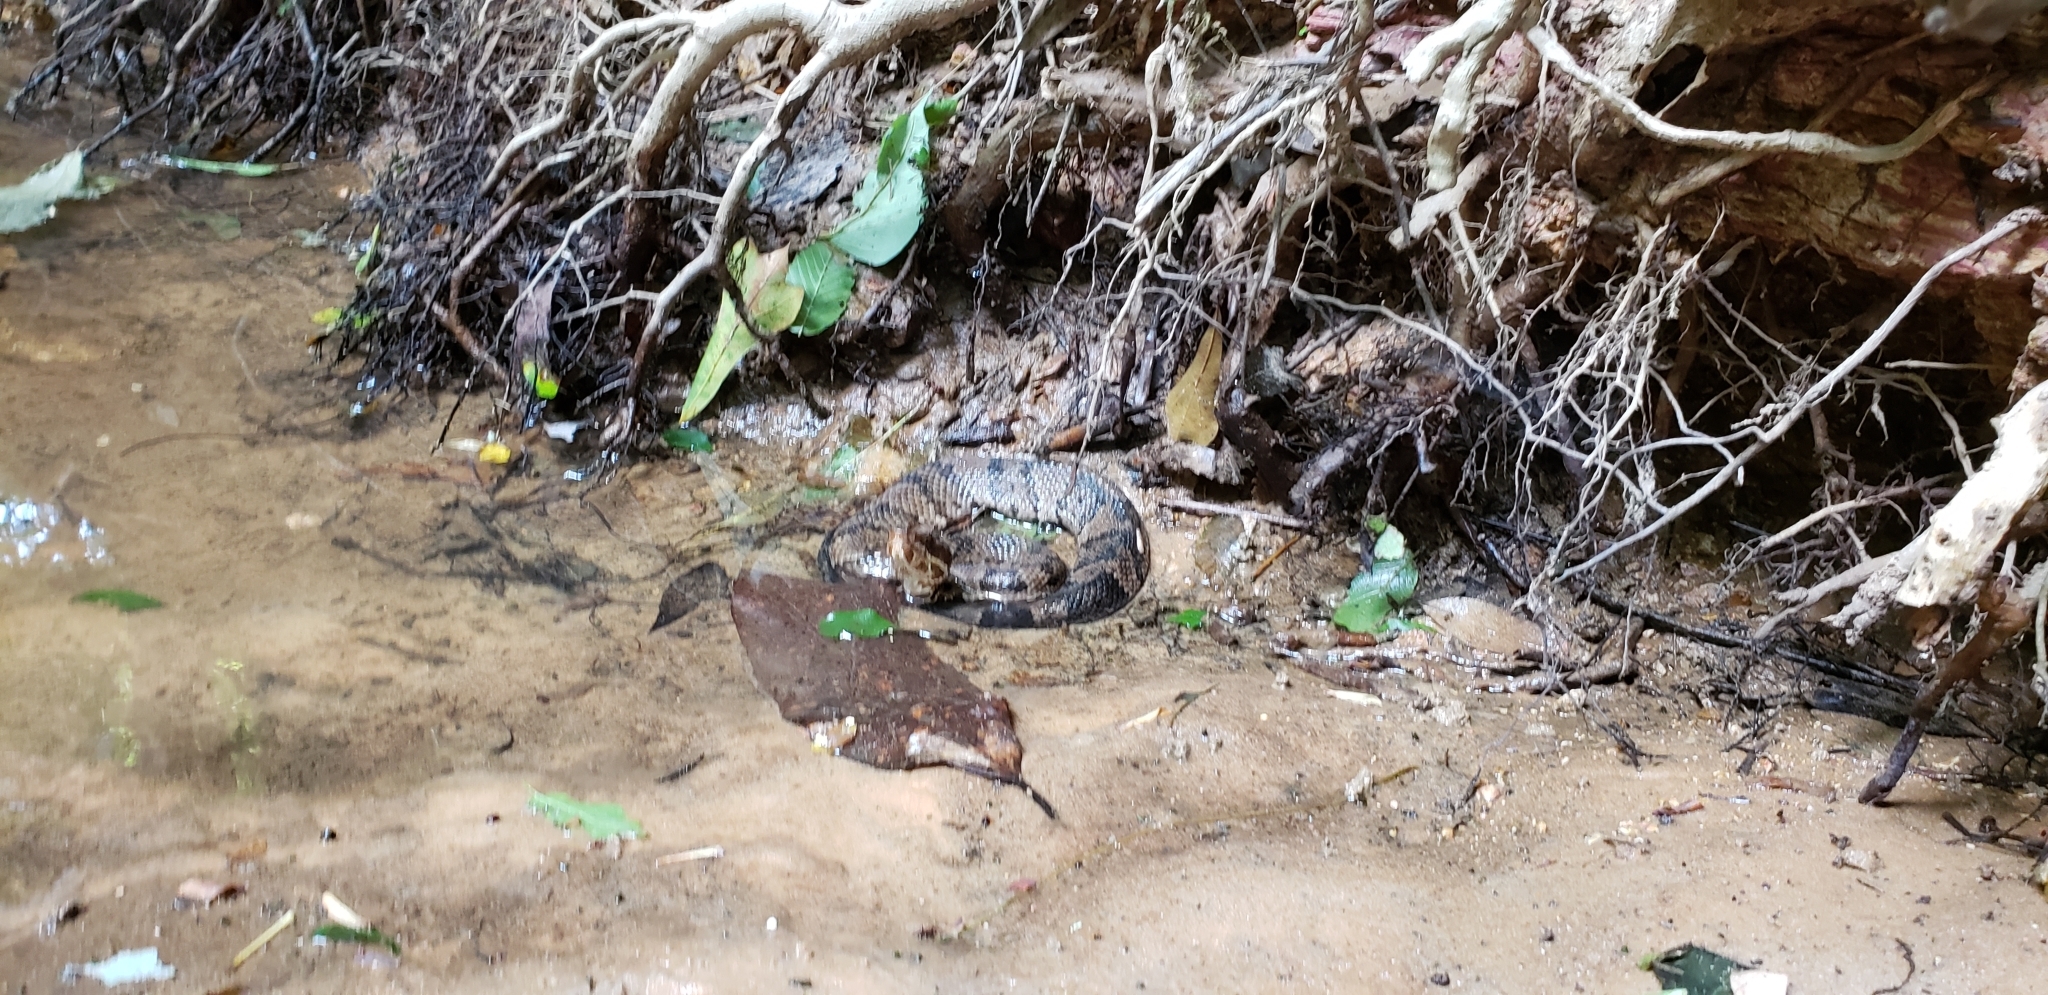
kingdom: Animalia
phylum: Chordata
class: Squamata
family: Viperidae
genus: Agkistrodon
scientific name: Agkistrodon piscivorus
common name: Cottonmouth
